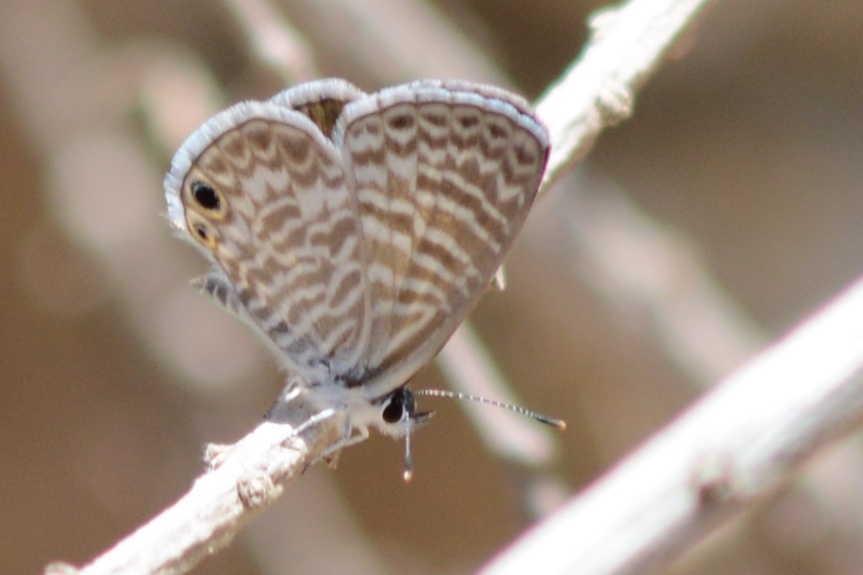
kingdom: Animalia
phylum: Arthropoda
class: Insecta
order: Lepidoptera
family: Lycaenidae
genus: Leptotes
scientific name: Leptotes marina
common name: Marine blue
